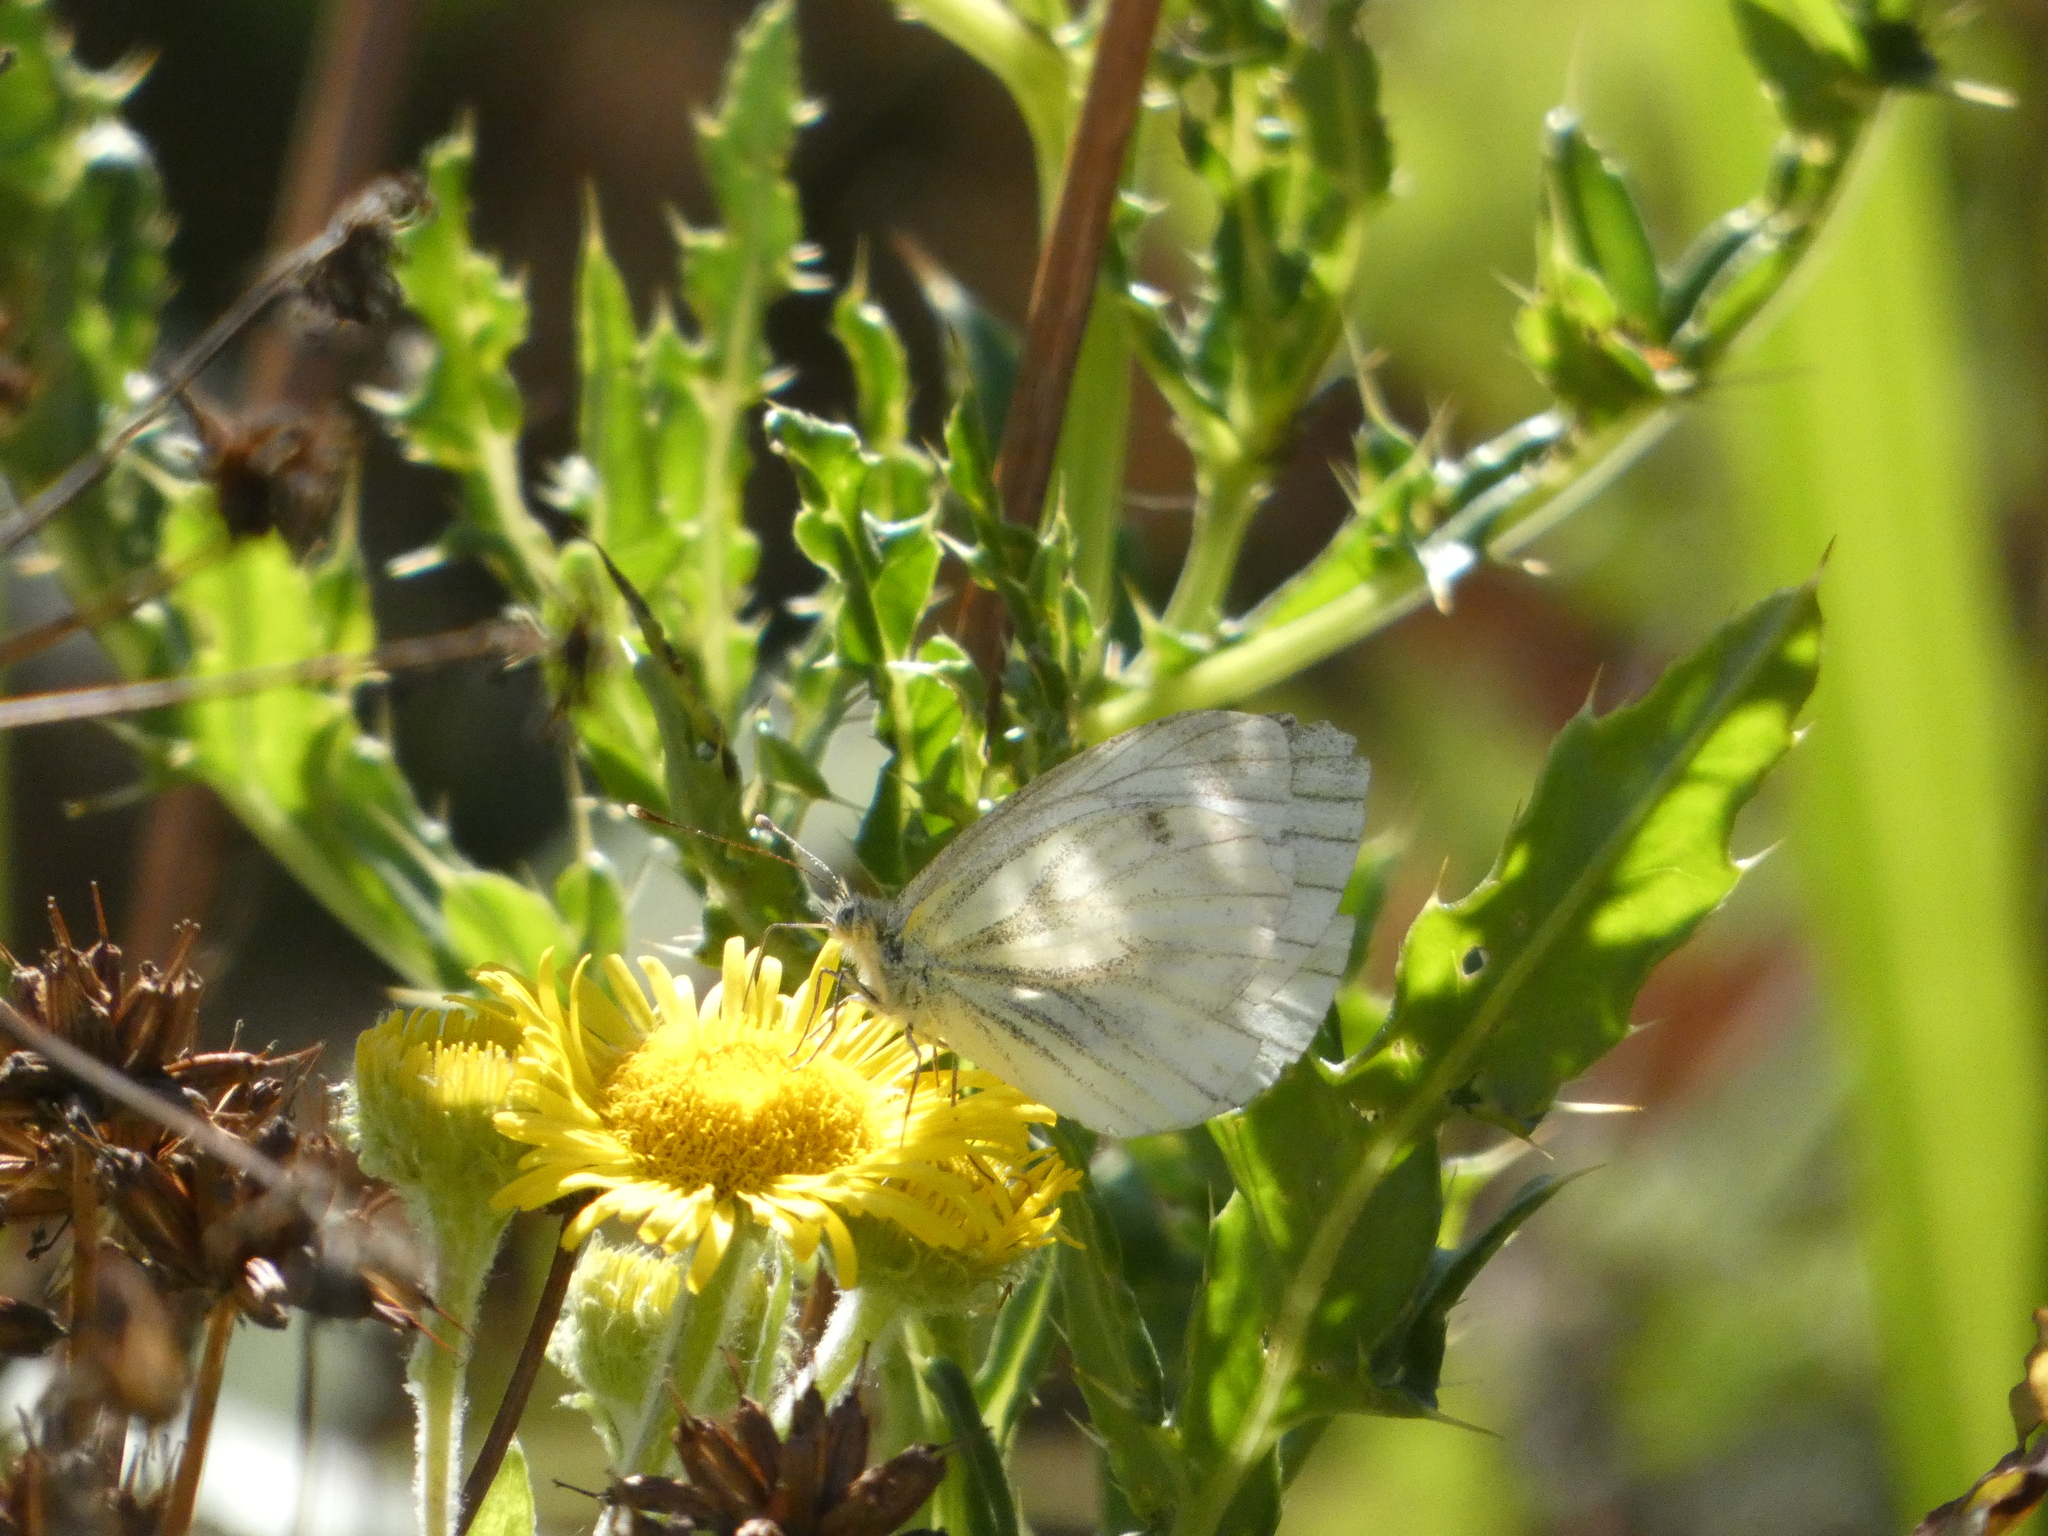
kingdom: Animalia
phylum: Arthropoda
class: Insecta
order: Lepidoptera
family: Pieridae
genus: Pieris
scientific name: Pieris napi
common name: Green-veined white
